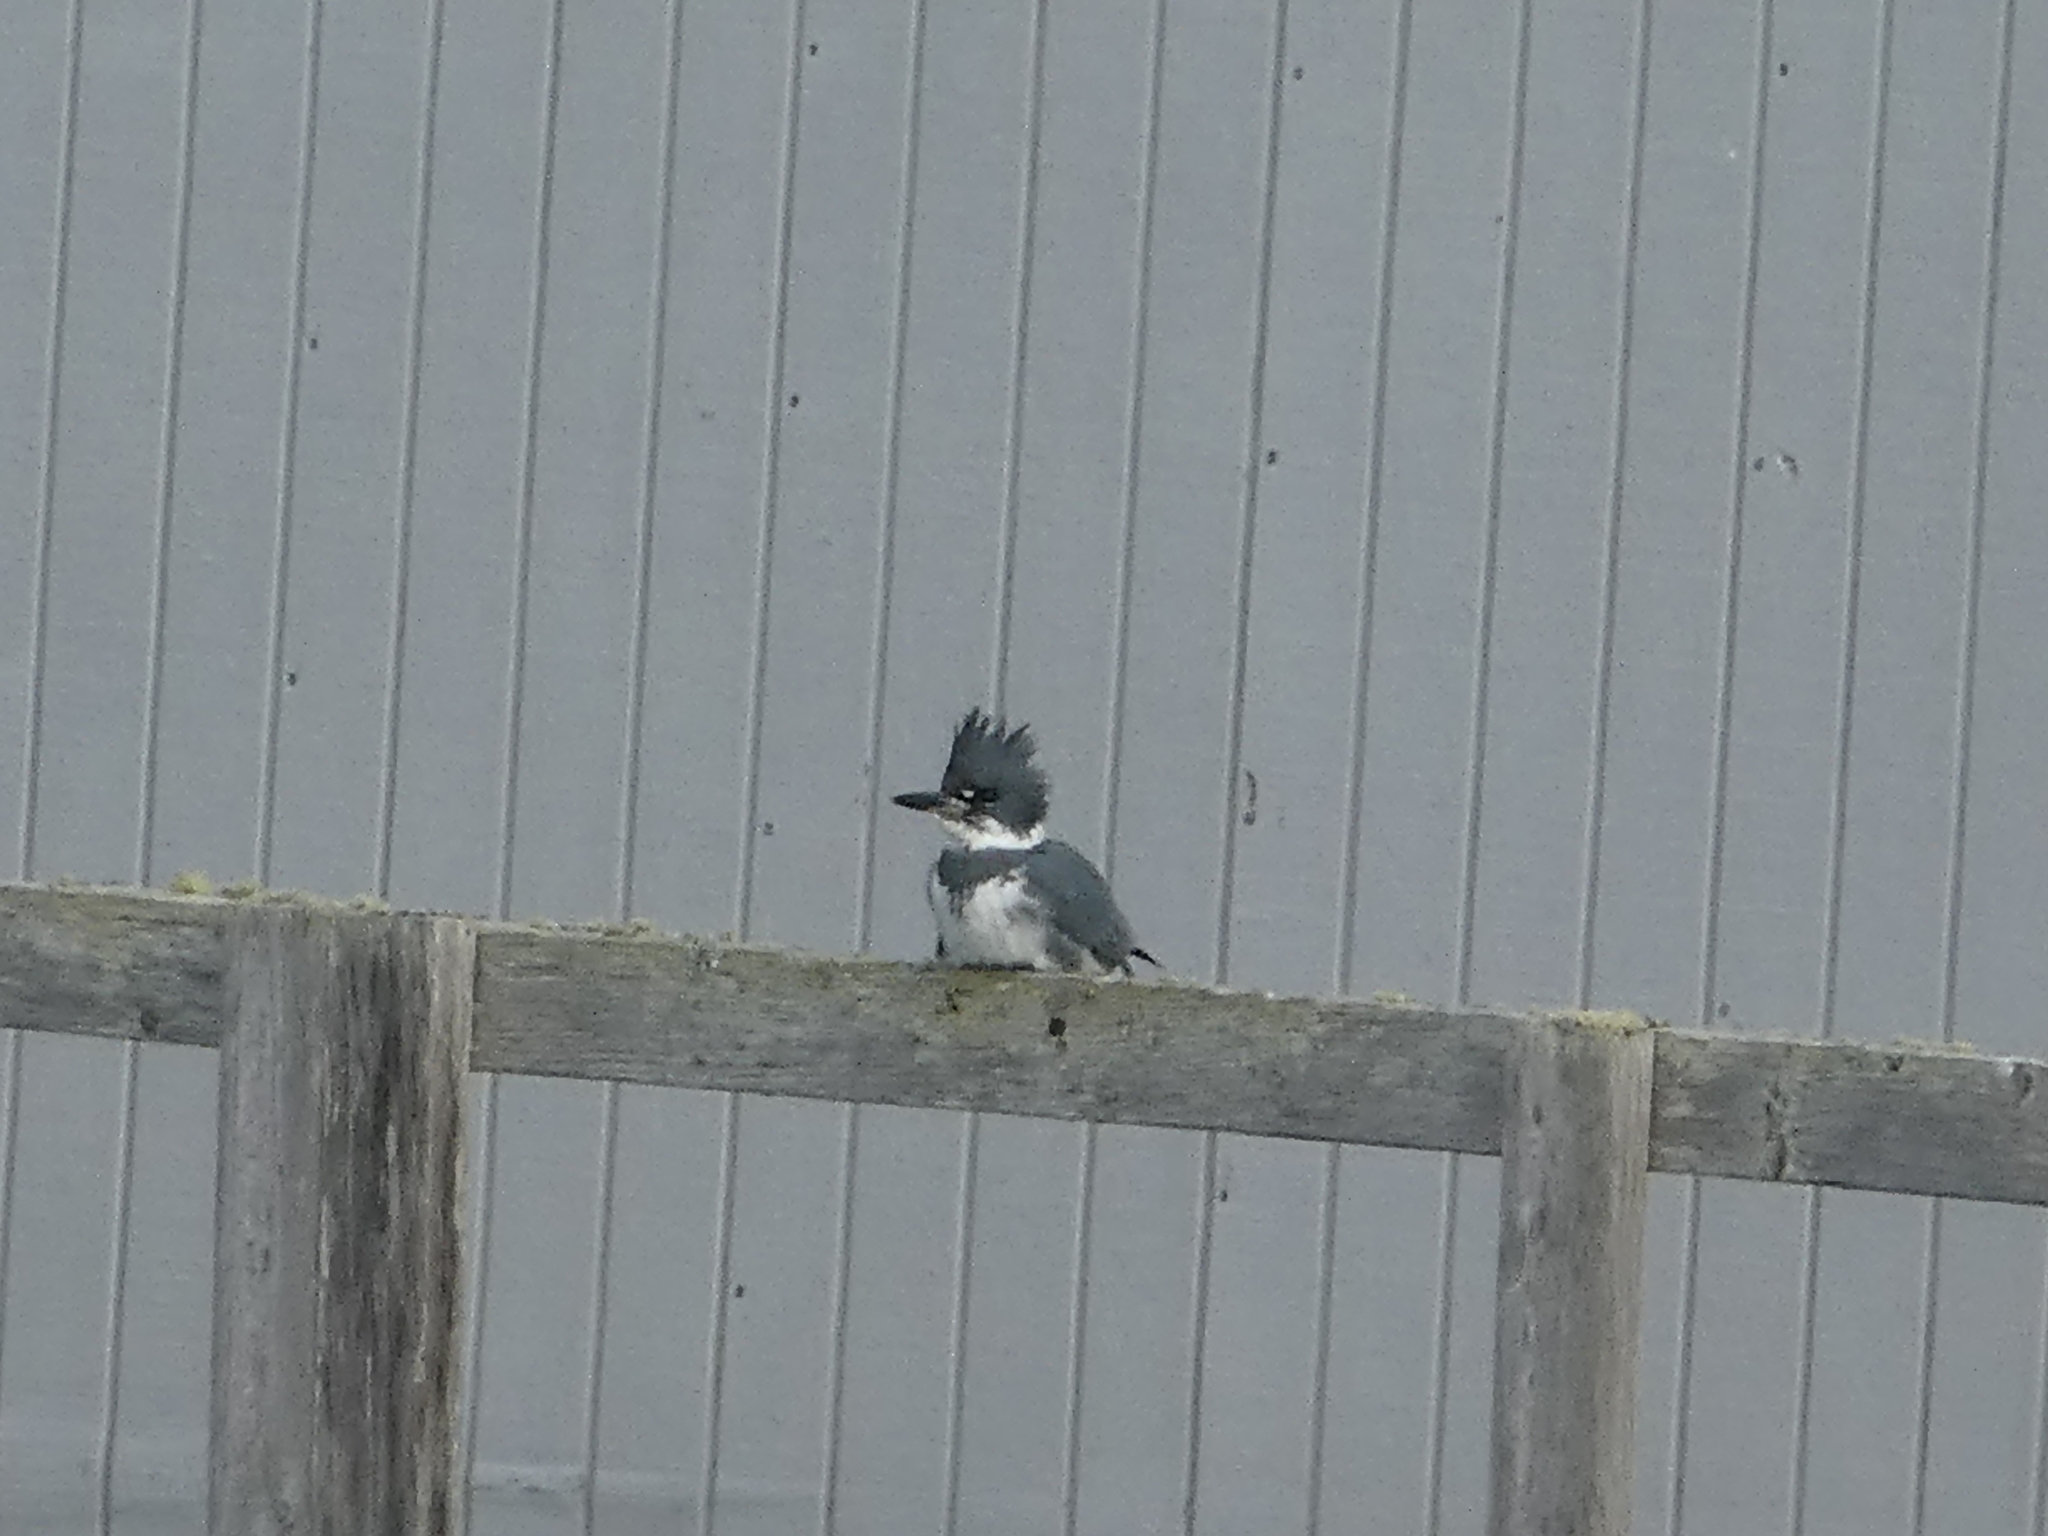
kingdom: Animalia
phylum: Chordata
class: Aves
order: Coraciiformes
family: Alcedinidae
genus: Megaceryle
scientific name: Megaceryle alcyon
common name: Belted kingfisher
